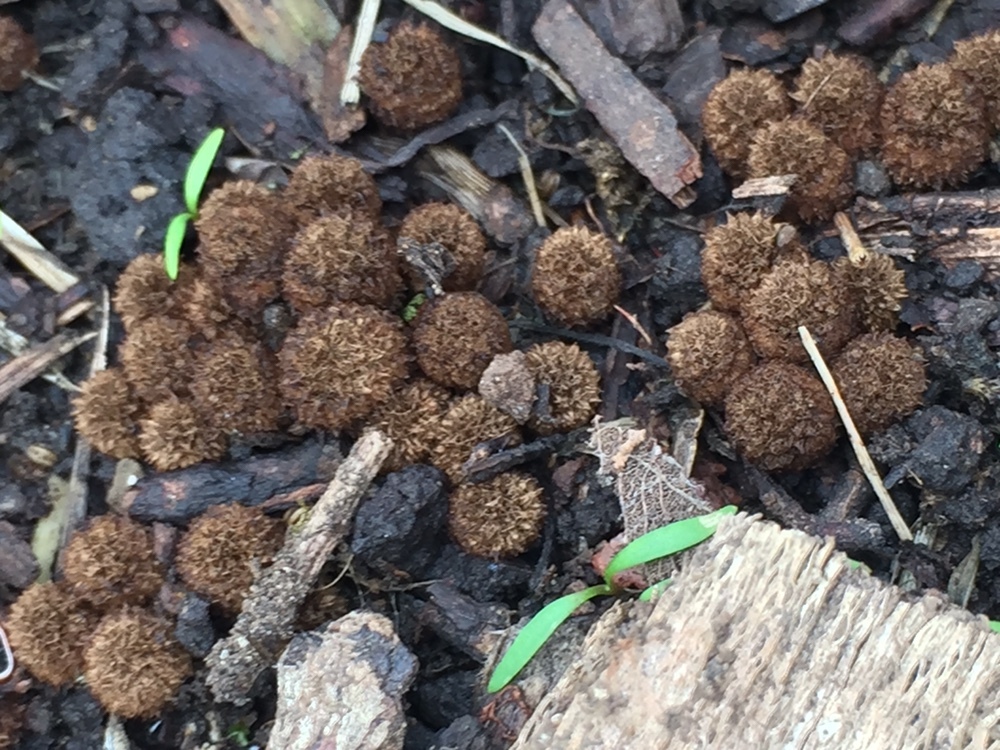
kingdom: Fungi
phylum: Basidiomycota
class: Agaricomycetes
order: Agaricales
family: Agaricaceae
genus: Cyathus
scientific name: Cyathus striatus
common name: Fluted bird's nest
